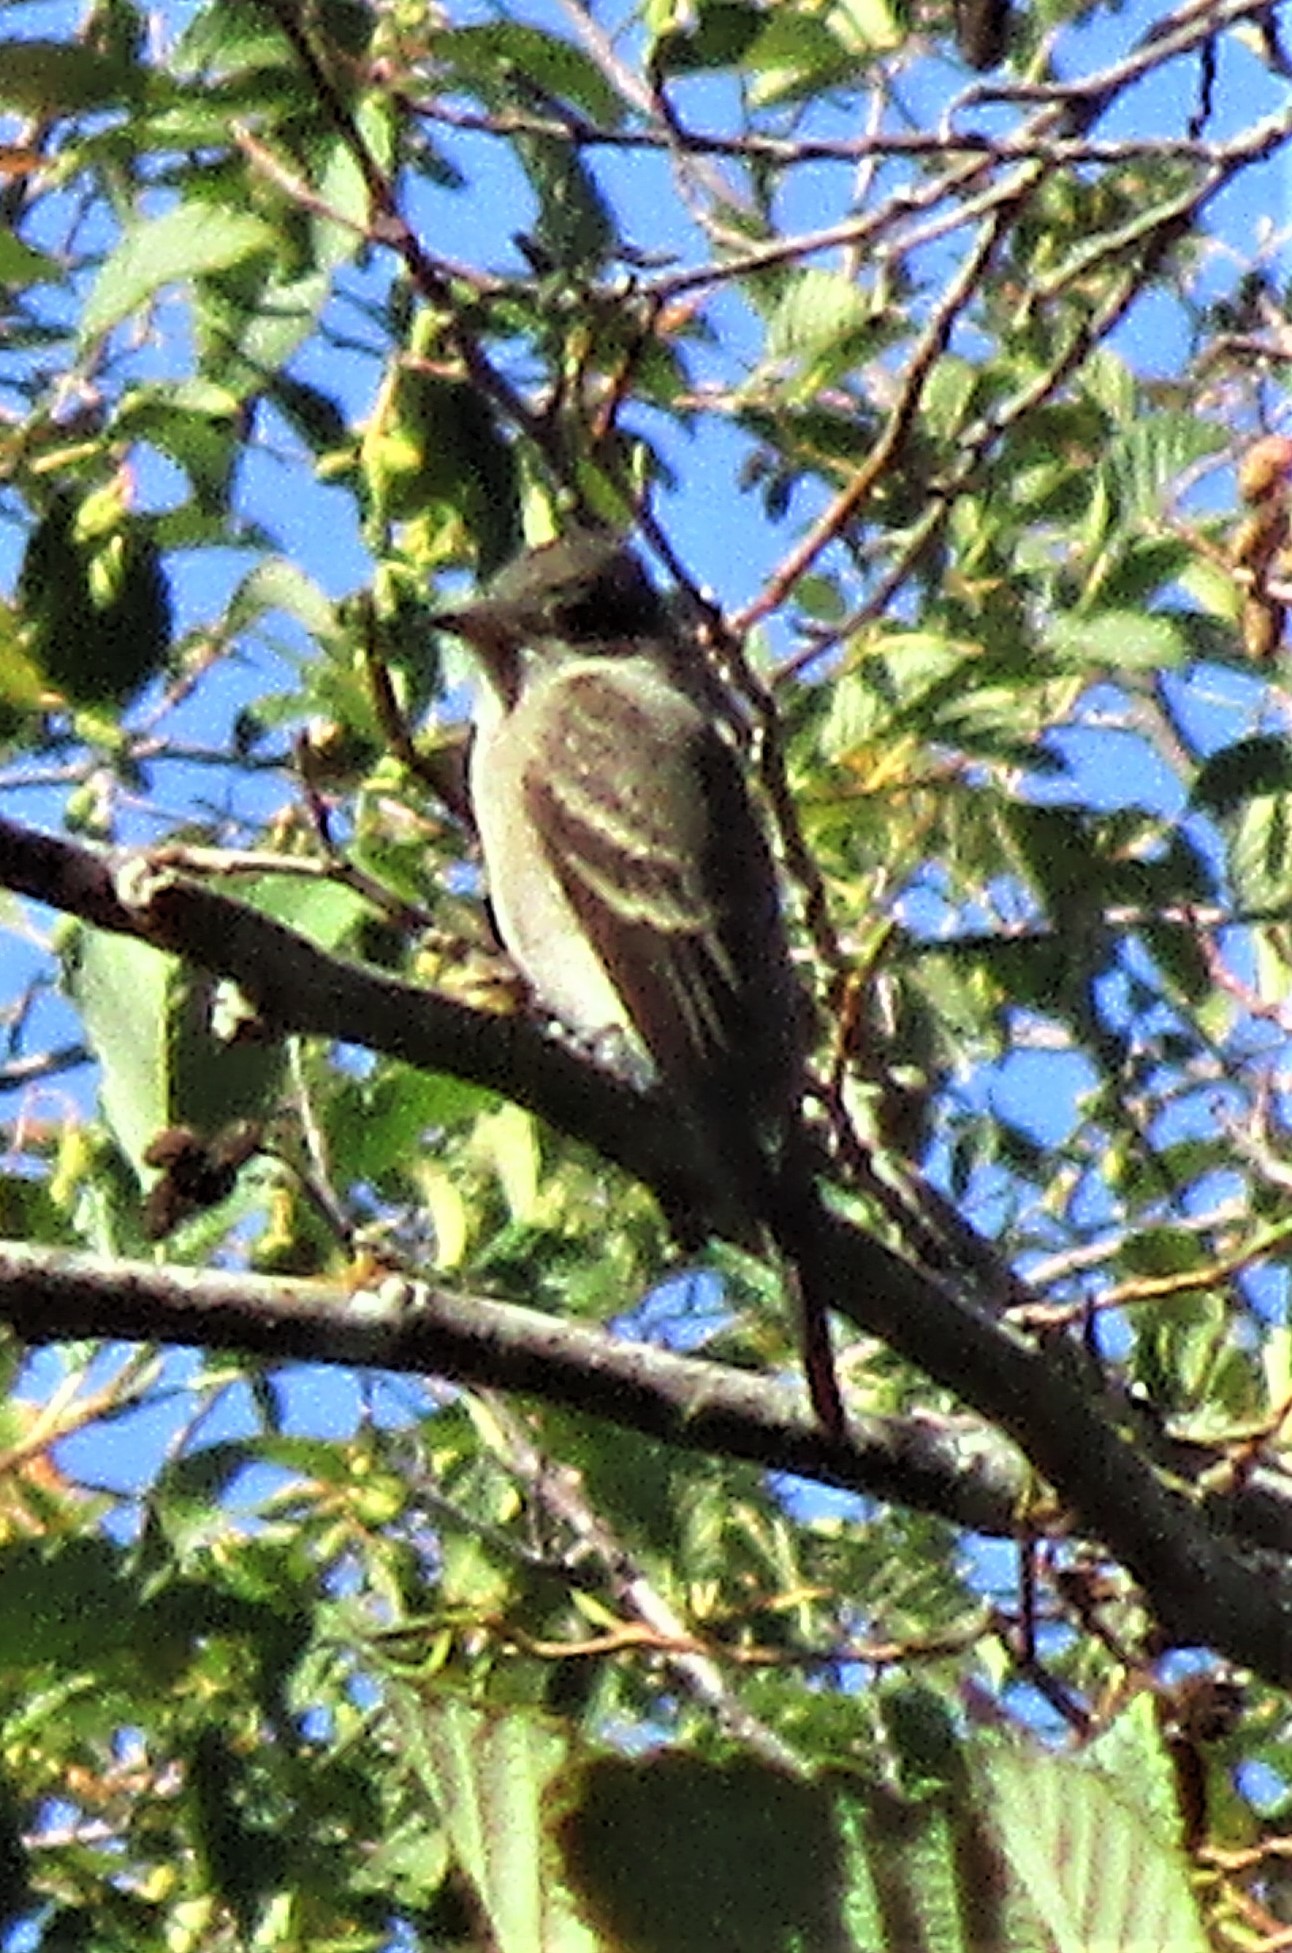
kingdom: Animalia
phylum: Chordata
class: Aves
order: Passeriformes
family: Tyrannidae
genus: Contopus
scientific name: Contopus sordidulus
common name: Western wood-pewee
